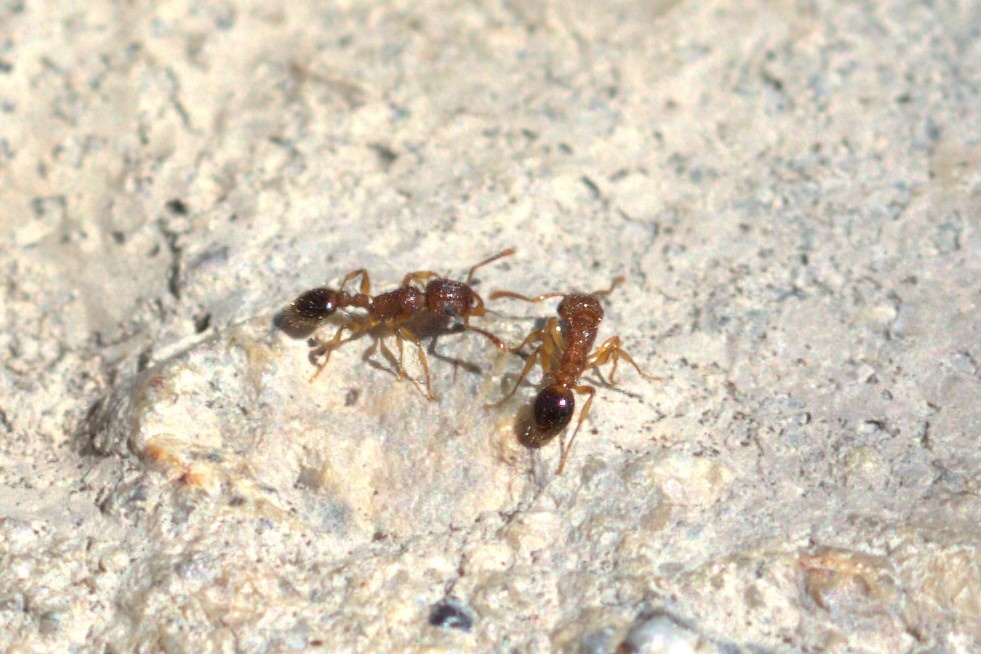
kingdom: Animalia
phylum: Arthropoda
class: Insecta
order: Hymenoptera
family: Formicidae
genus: Tetramorium
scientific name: Tetramorium bicarinatum
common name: Guinea ant
